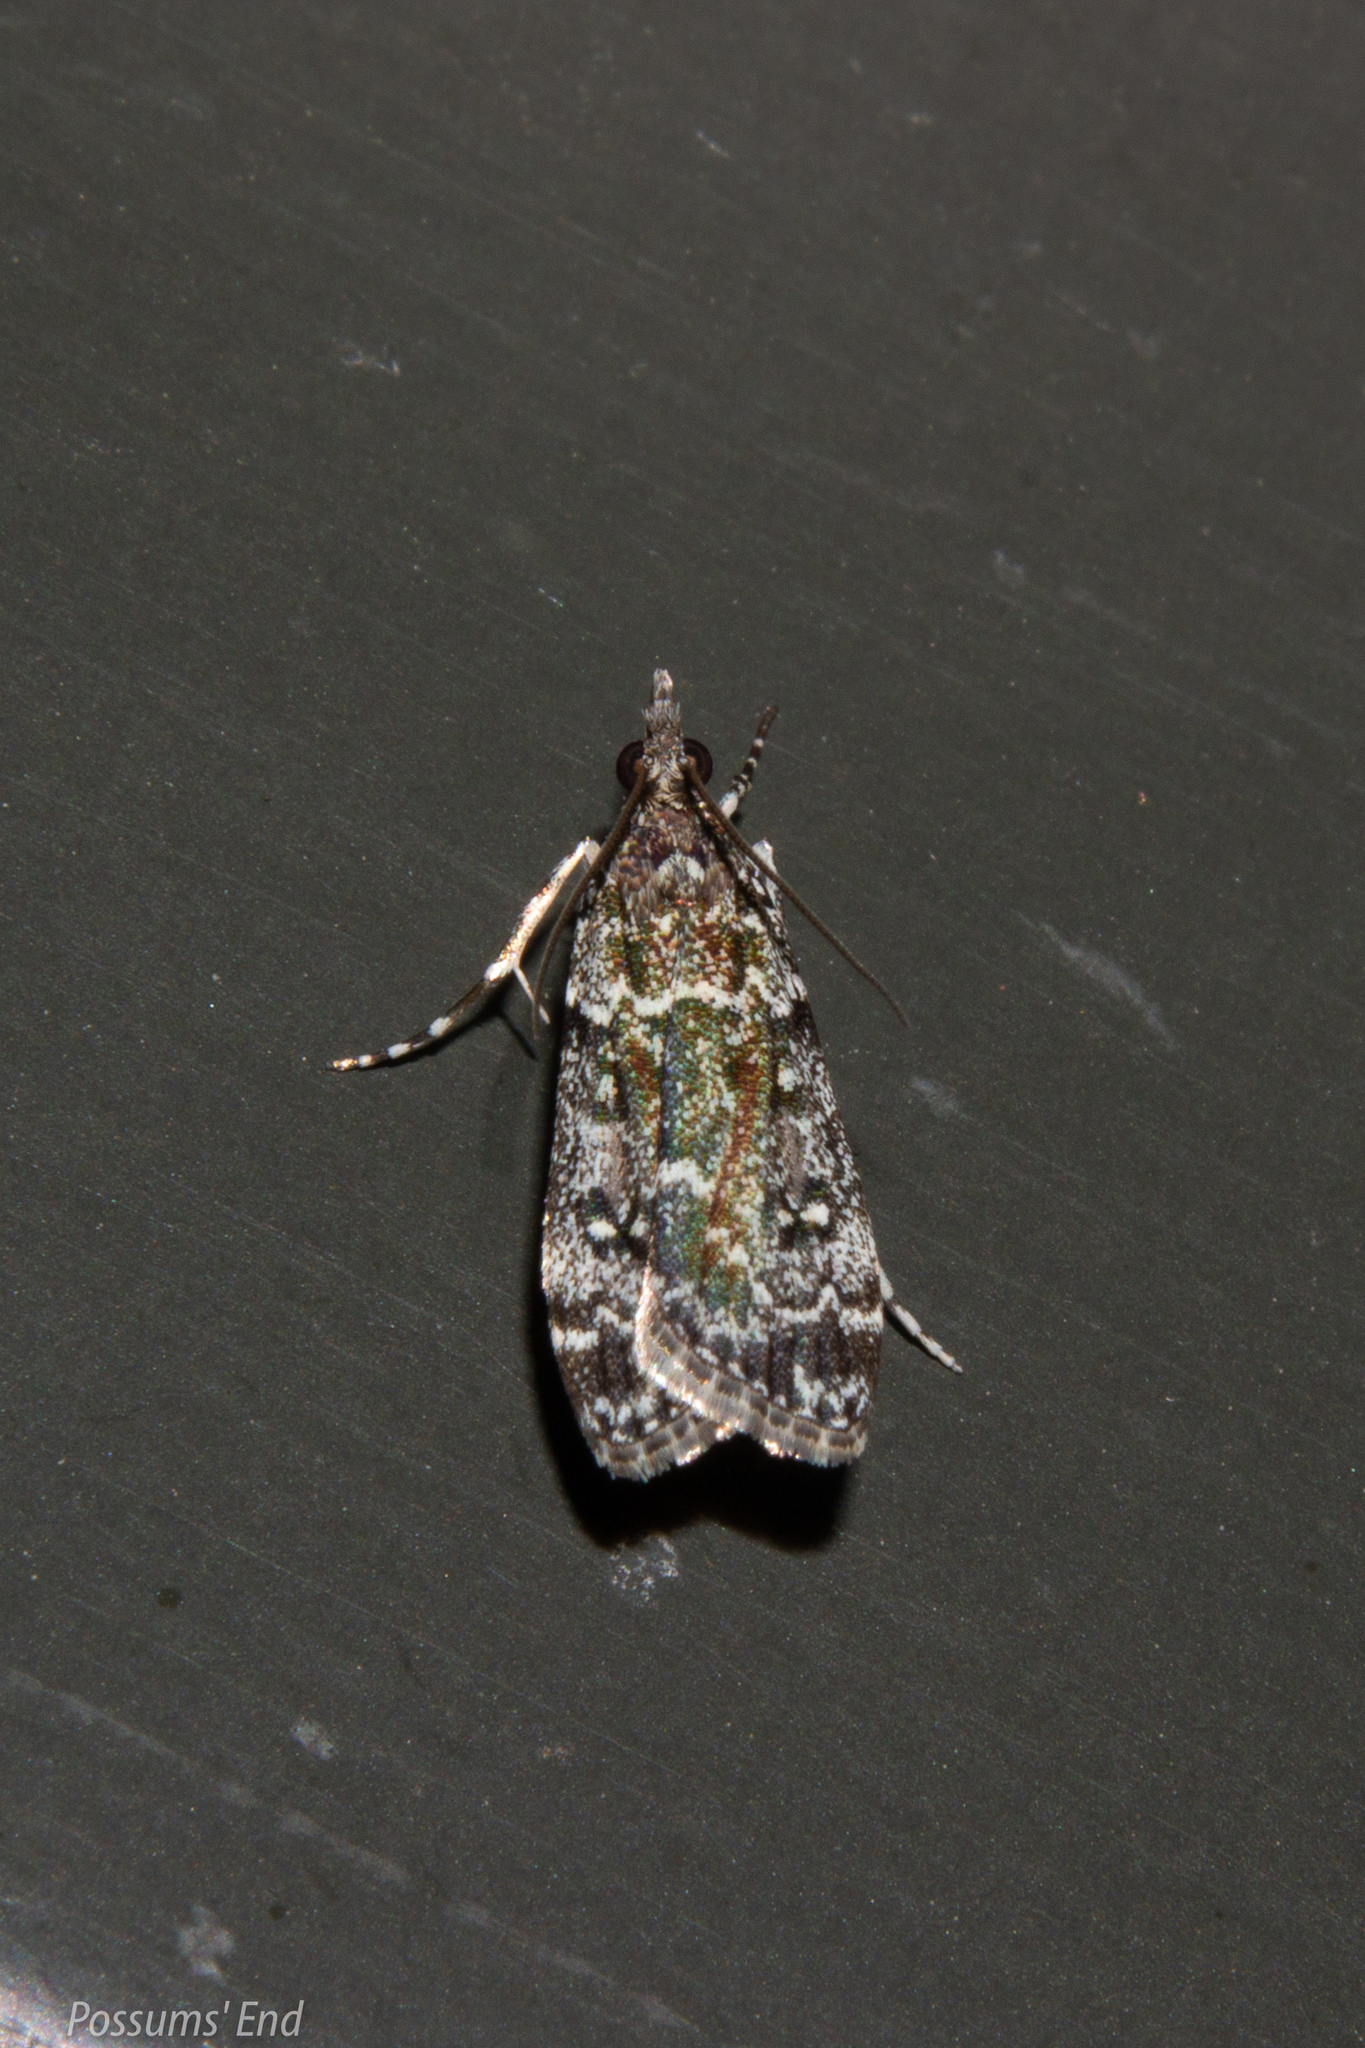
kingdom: Animalia
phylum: Arthropoda
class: Insecta
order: Lepidoptera
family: Crambidae
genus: Eudonia
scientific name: Eudonia philerga
